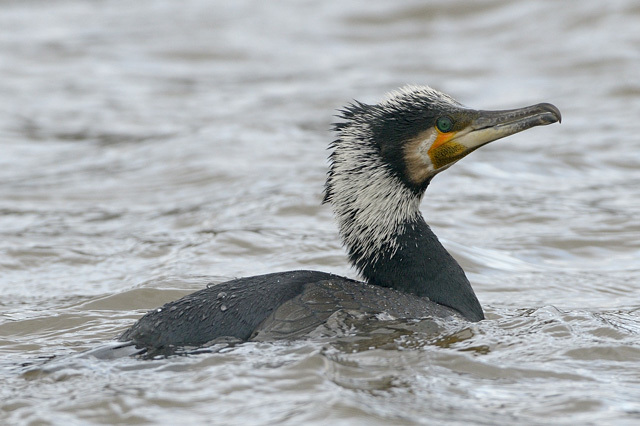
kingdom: Animalia
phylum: Chordata
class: Aves
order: Suliformes
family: Phalacrocoracidae
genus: Phalacrocorax
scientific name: Phalacrocorax carbo
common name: Great cormorant
